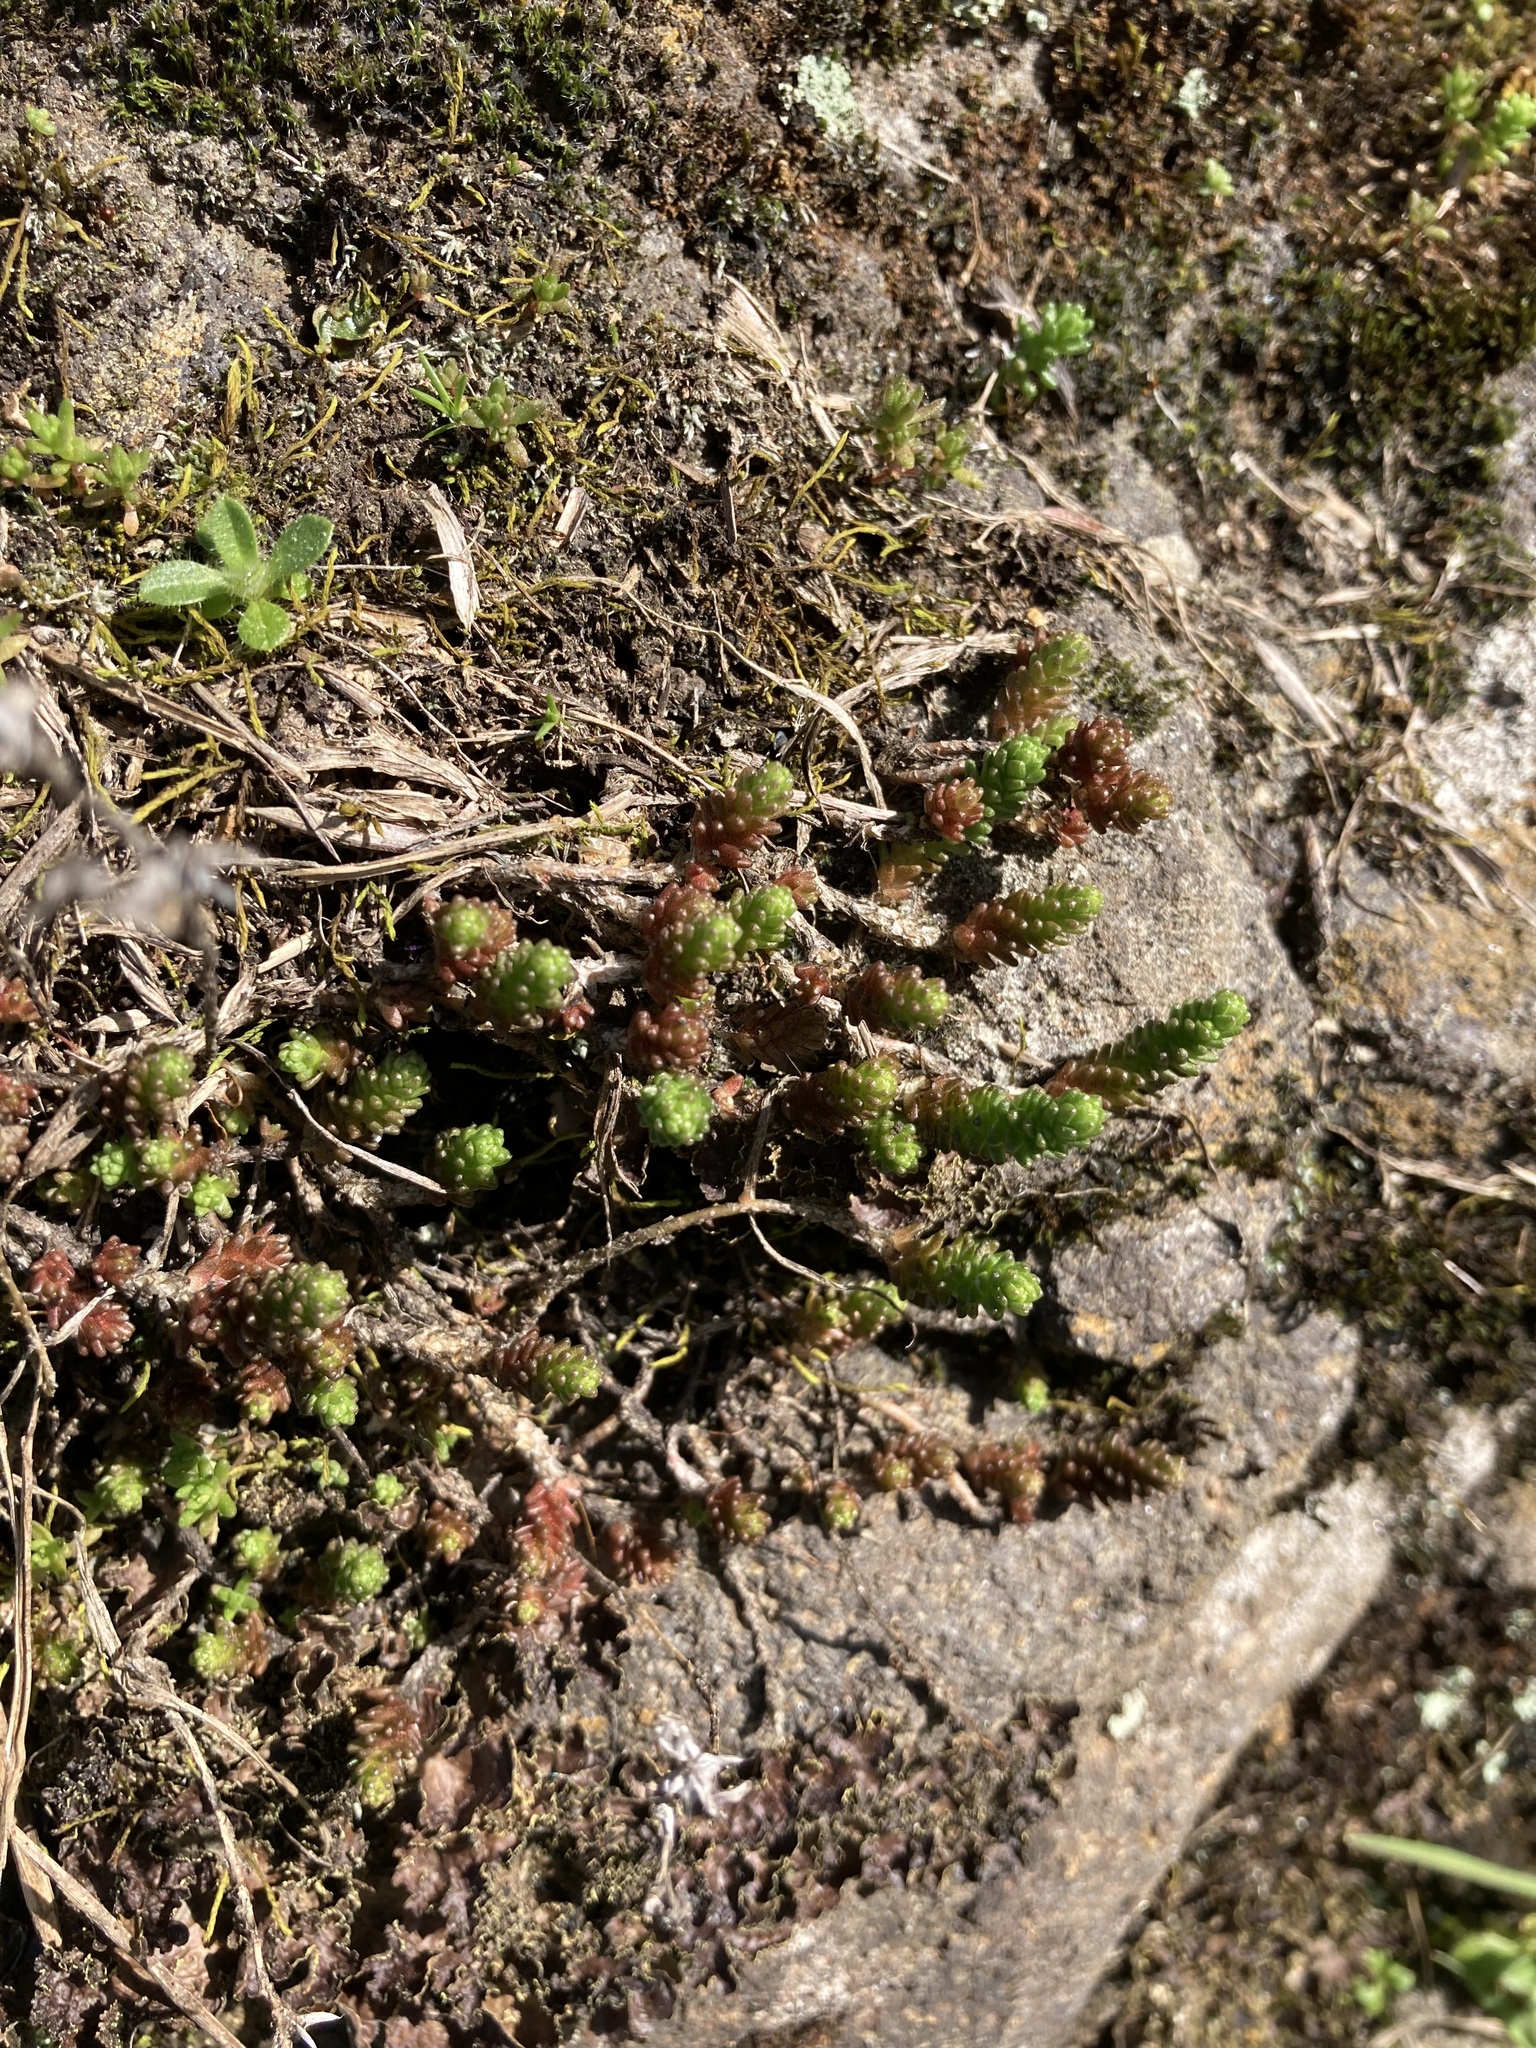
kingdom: Plantae
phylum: Tracheophyta
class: Magnoliopsida
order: Saxifragales
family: Crassulaceae
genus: Sedum
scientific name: Sedum acre
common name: Biting stonecrop
